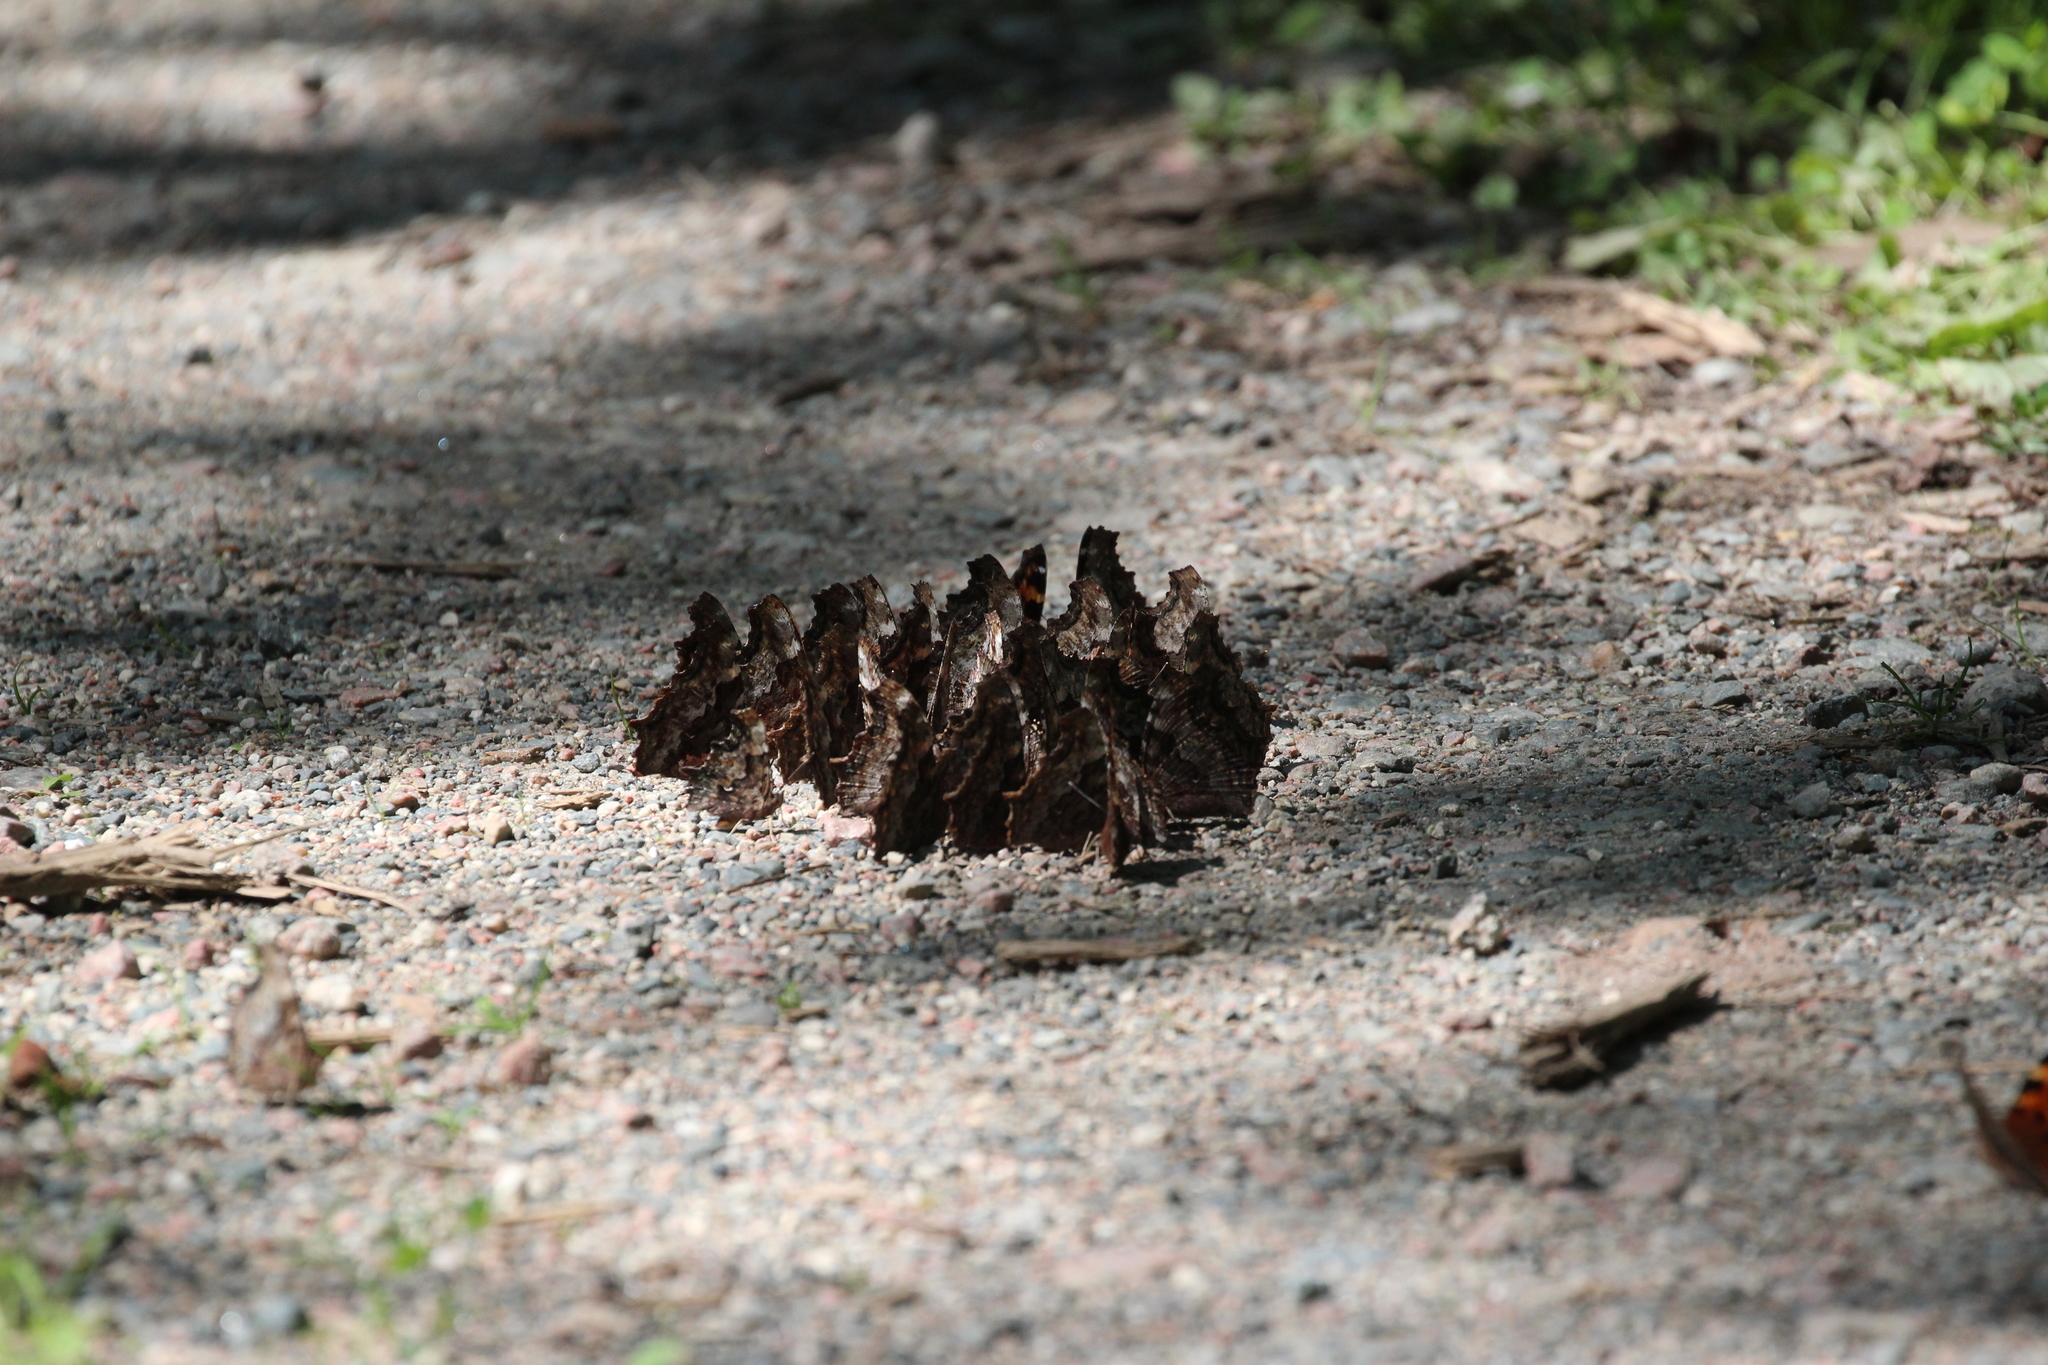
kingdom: Animalia
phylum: Arthropoda
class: Insecta
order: Lepidoptera
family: Nymphalidae
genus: Polygonia
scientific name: Polygonia vaualbum
